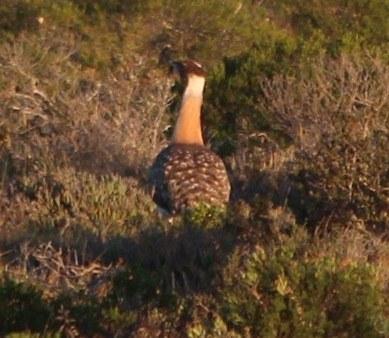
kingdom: Animalia
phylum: Chordata
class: Aves
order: Otidiformes
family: Otididae
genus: Neotis
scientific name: Neotis ludwigii
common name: Ludwig's bustard
